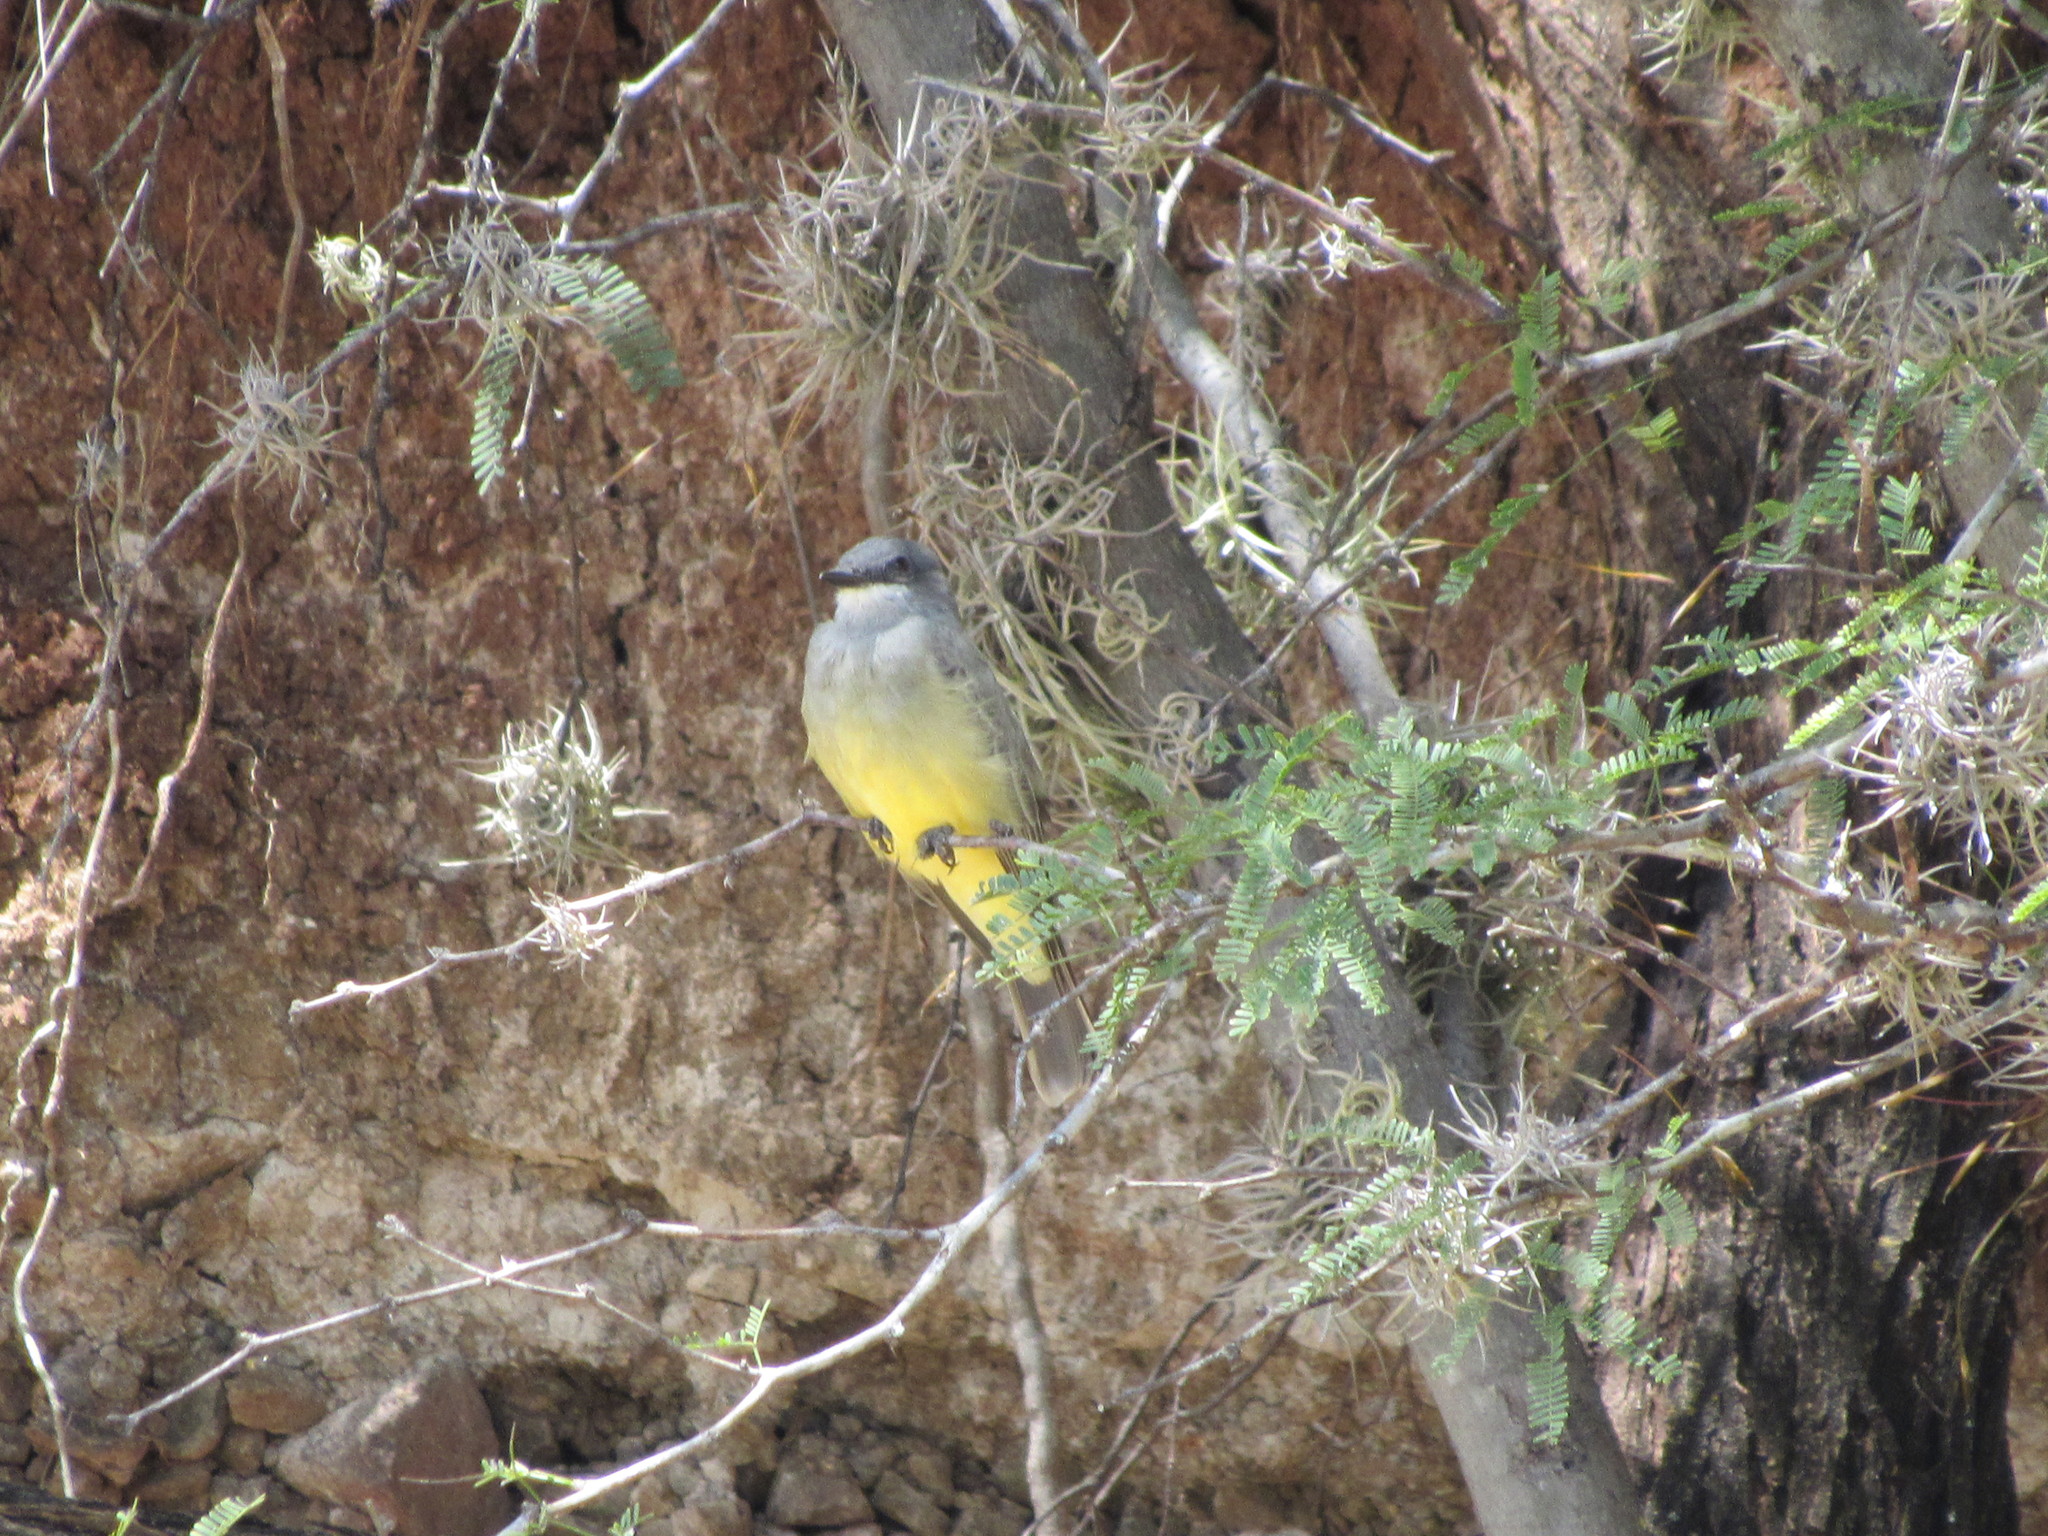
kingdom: Animalia
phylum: Chordata
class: Aves
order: Passeriformes
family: Tyrannidae
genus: Tyrannus
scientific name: Tyrannus vociferans
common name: Cassin's kingbird
